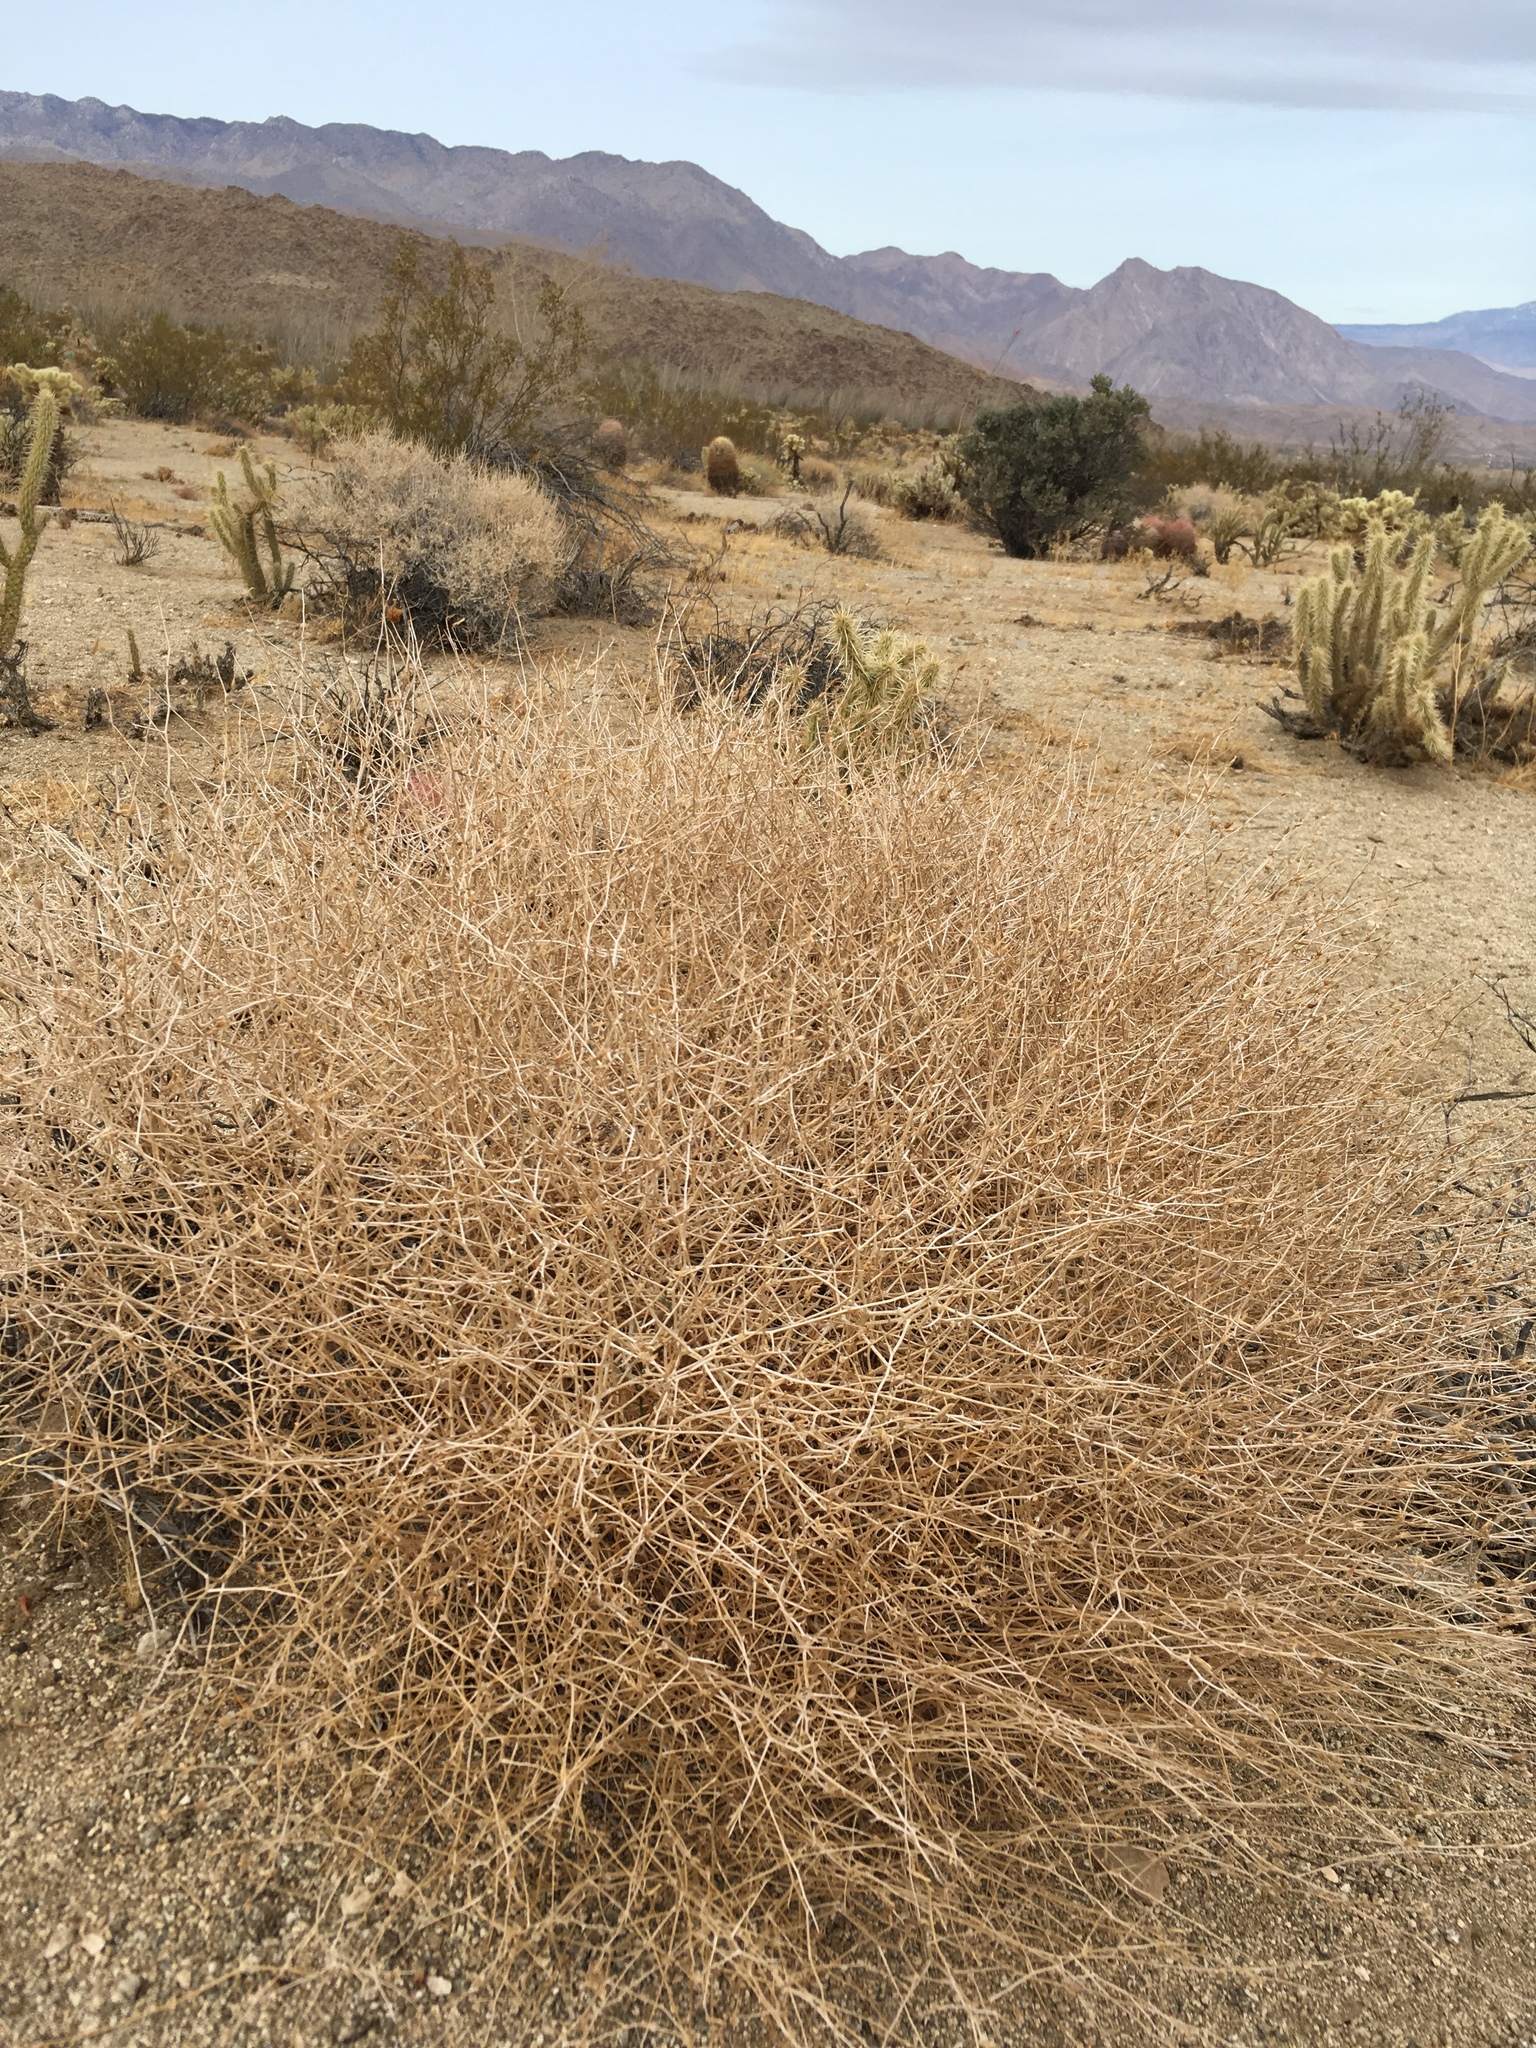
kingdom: Plantae
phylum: Tracheophyta
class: Magnoliopsida
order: Asterales
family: Asteraceae
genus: Stephanomeria
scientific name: Stephanomeria pauciflora
